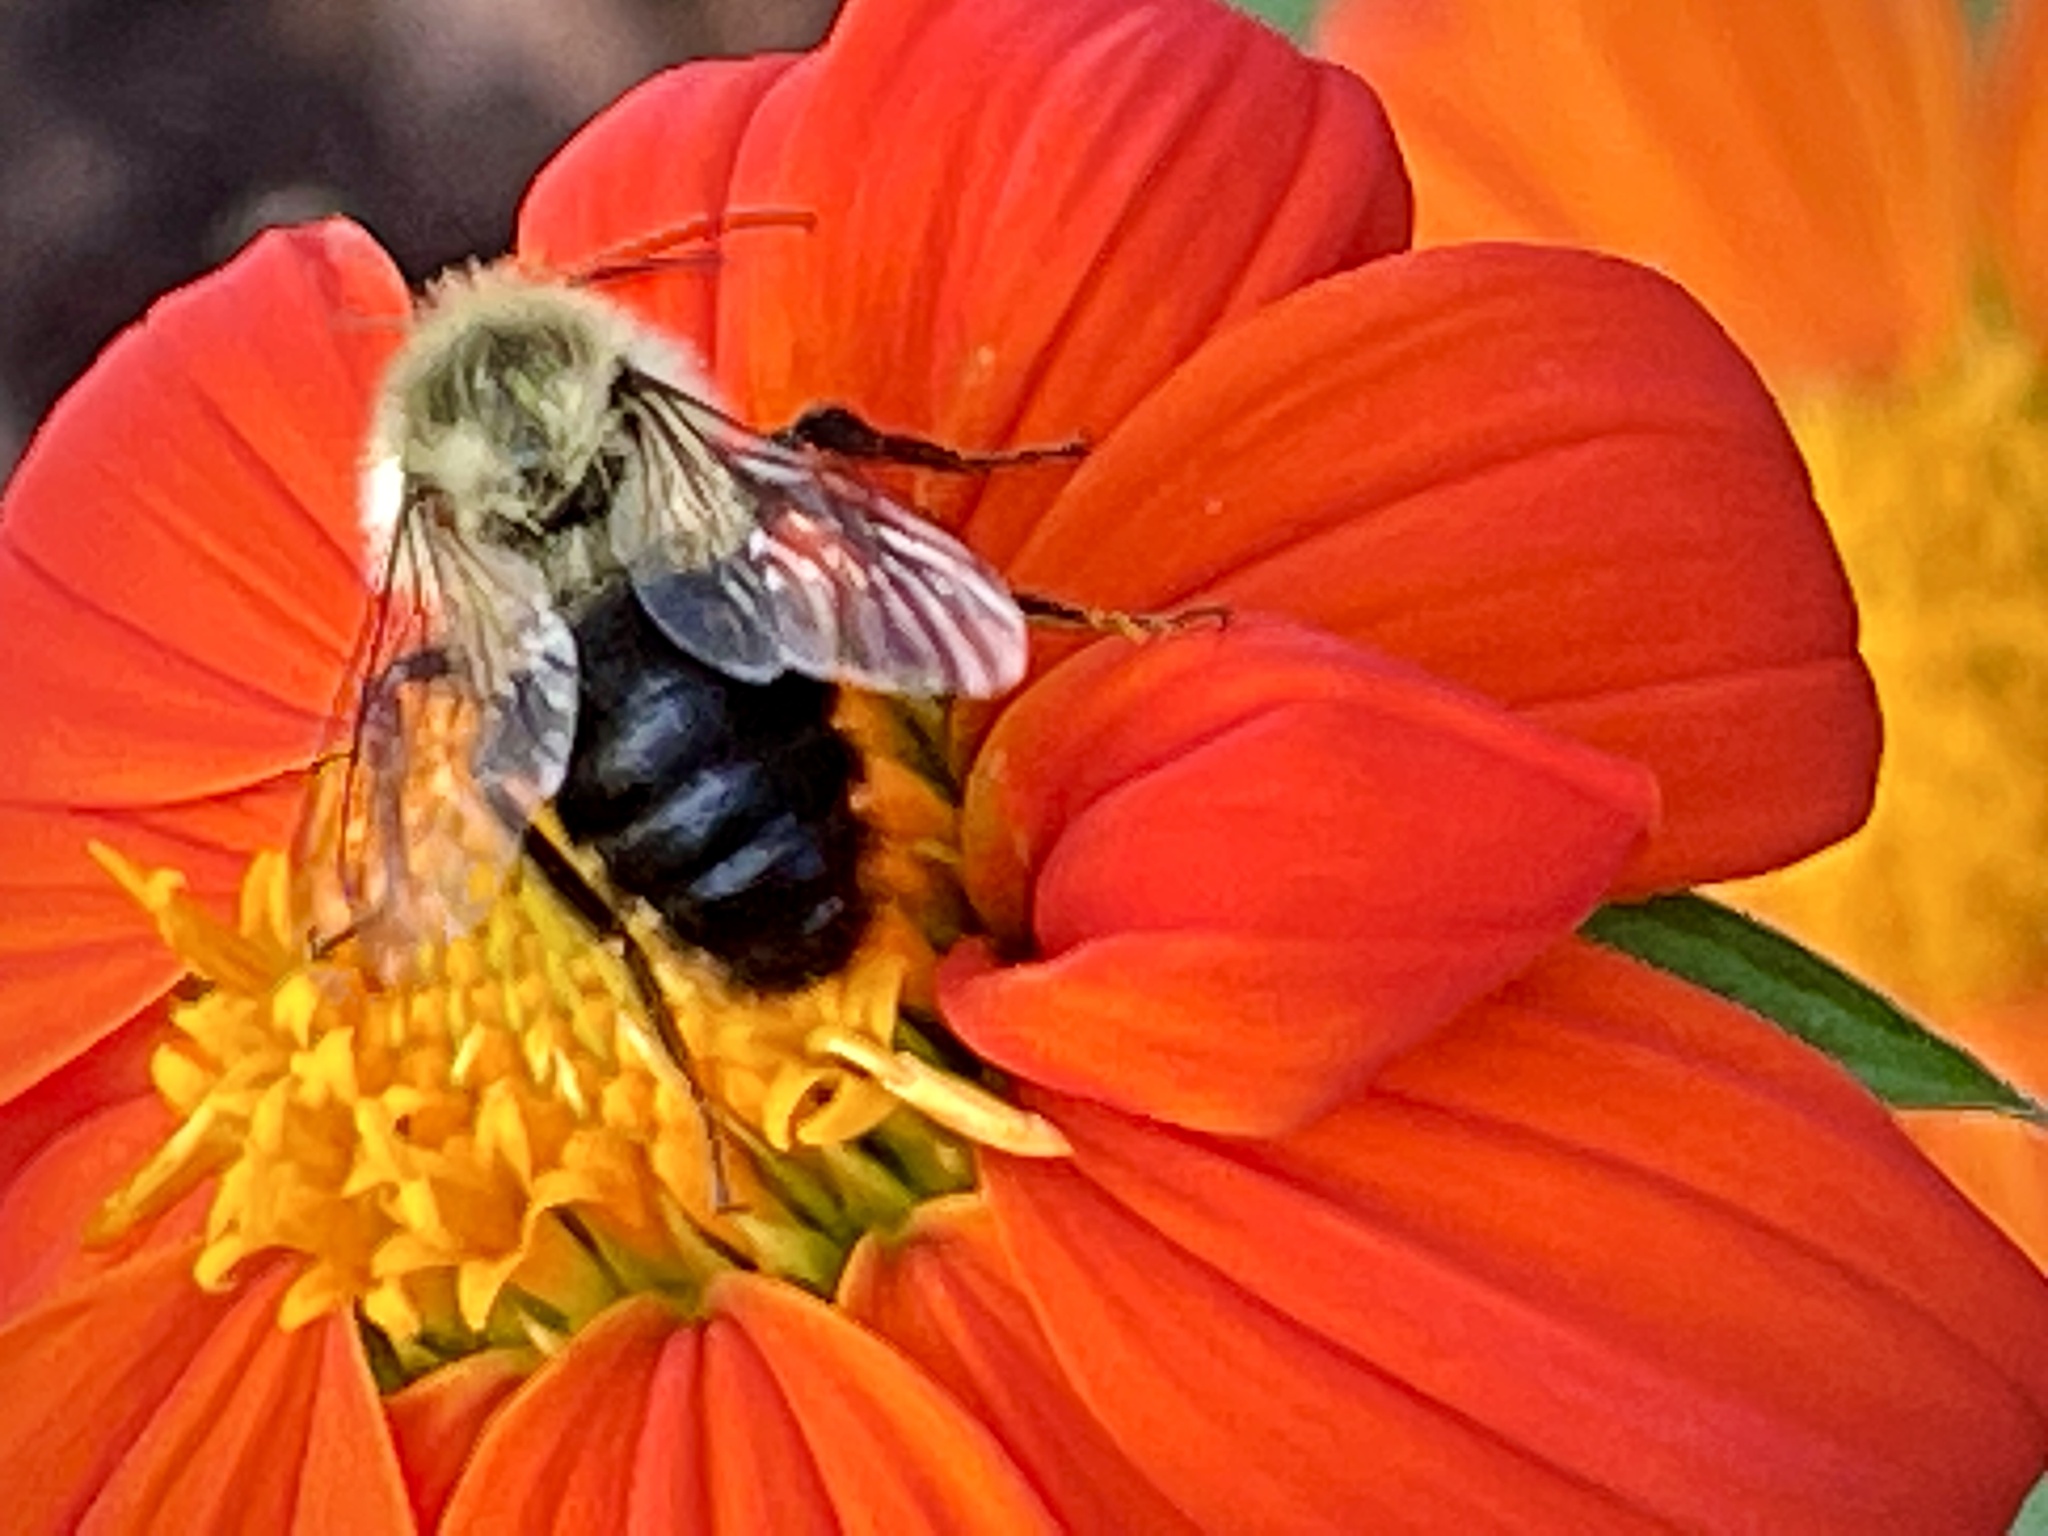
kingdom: Animalia
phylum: Arthropoda
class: Insecta
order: Hymenoptera
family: Apidae
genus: Bombus
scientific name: Bombus impatiens
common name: Common eastern bumble bee
